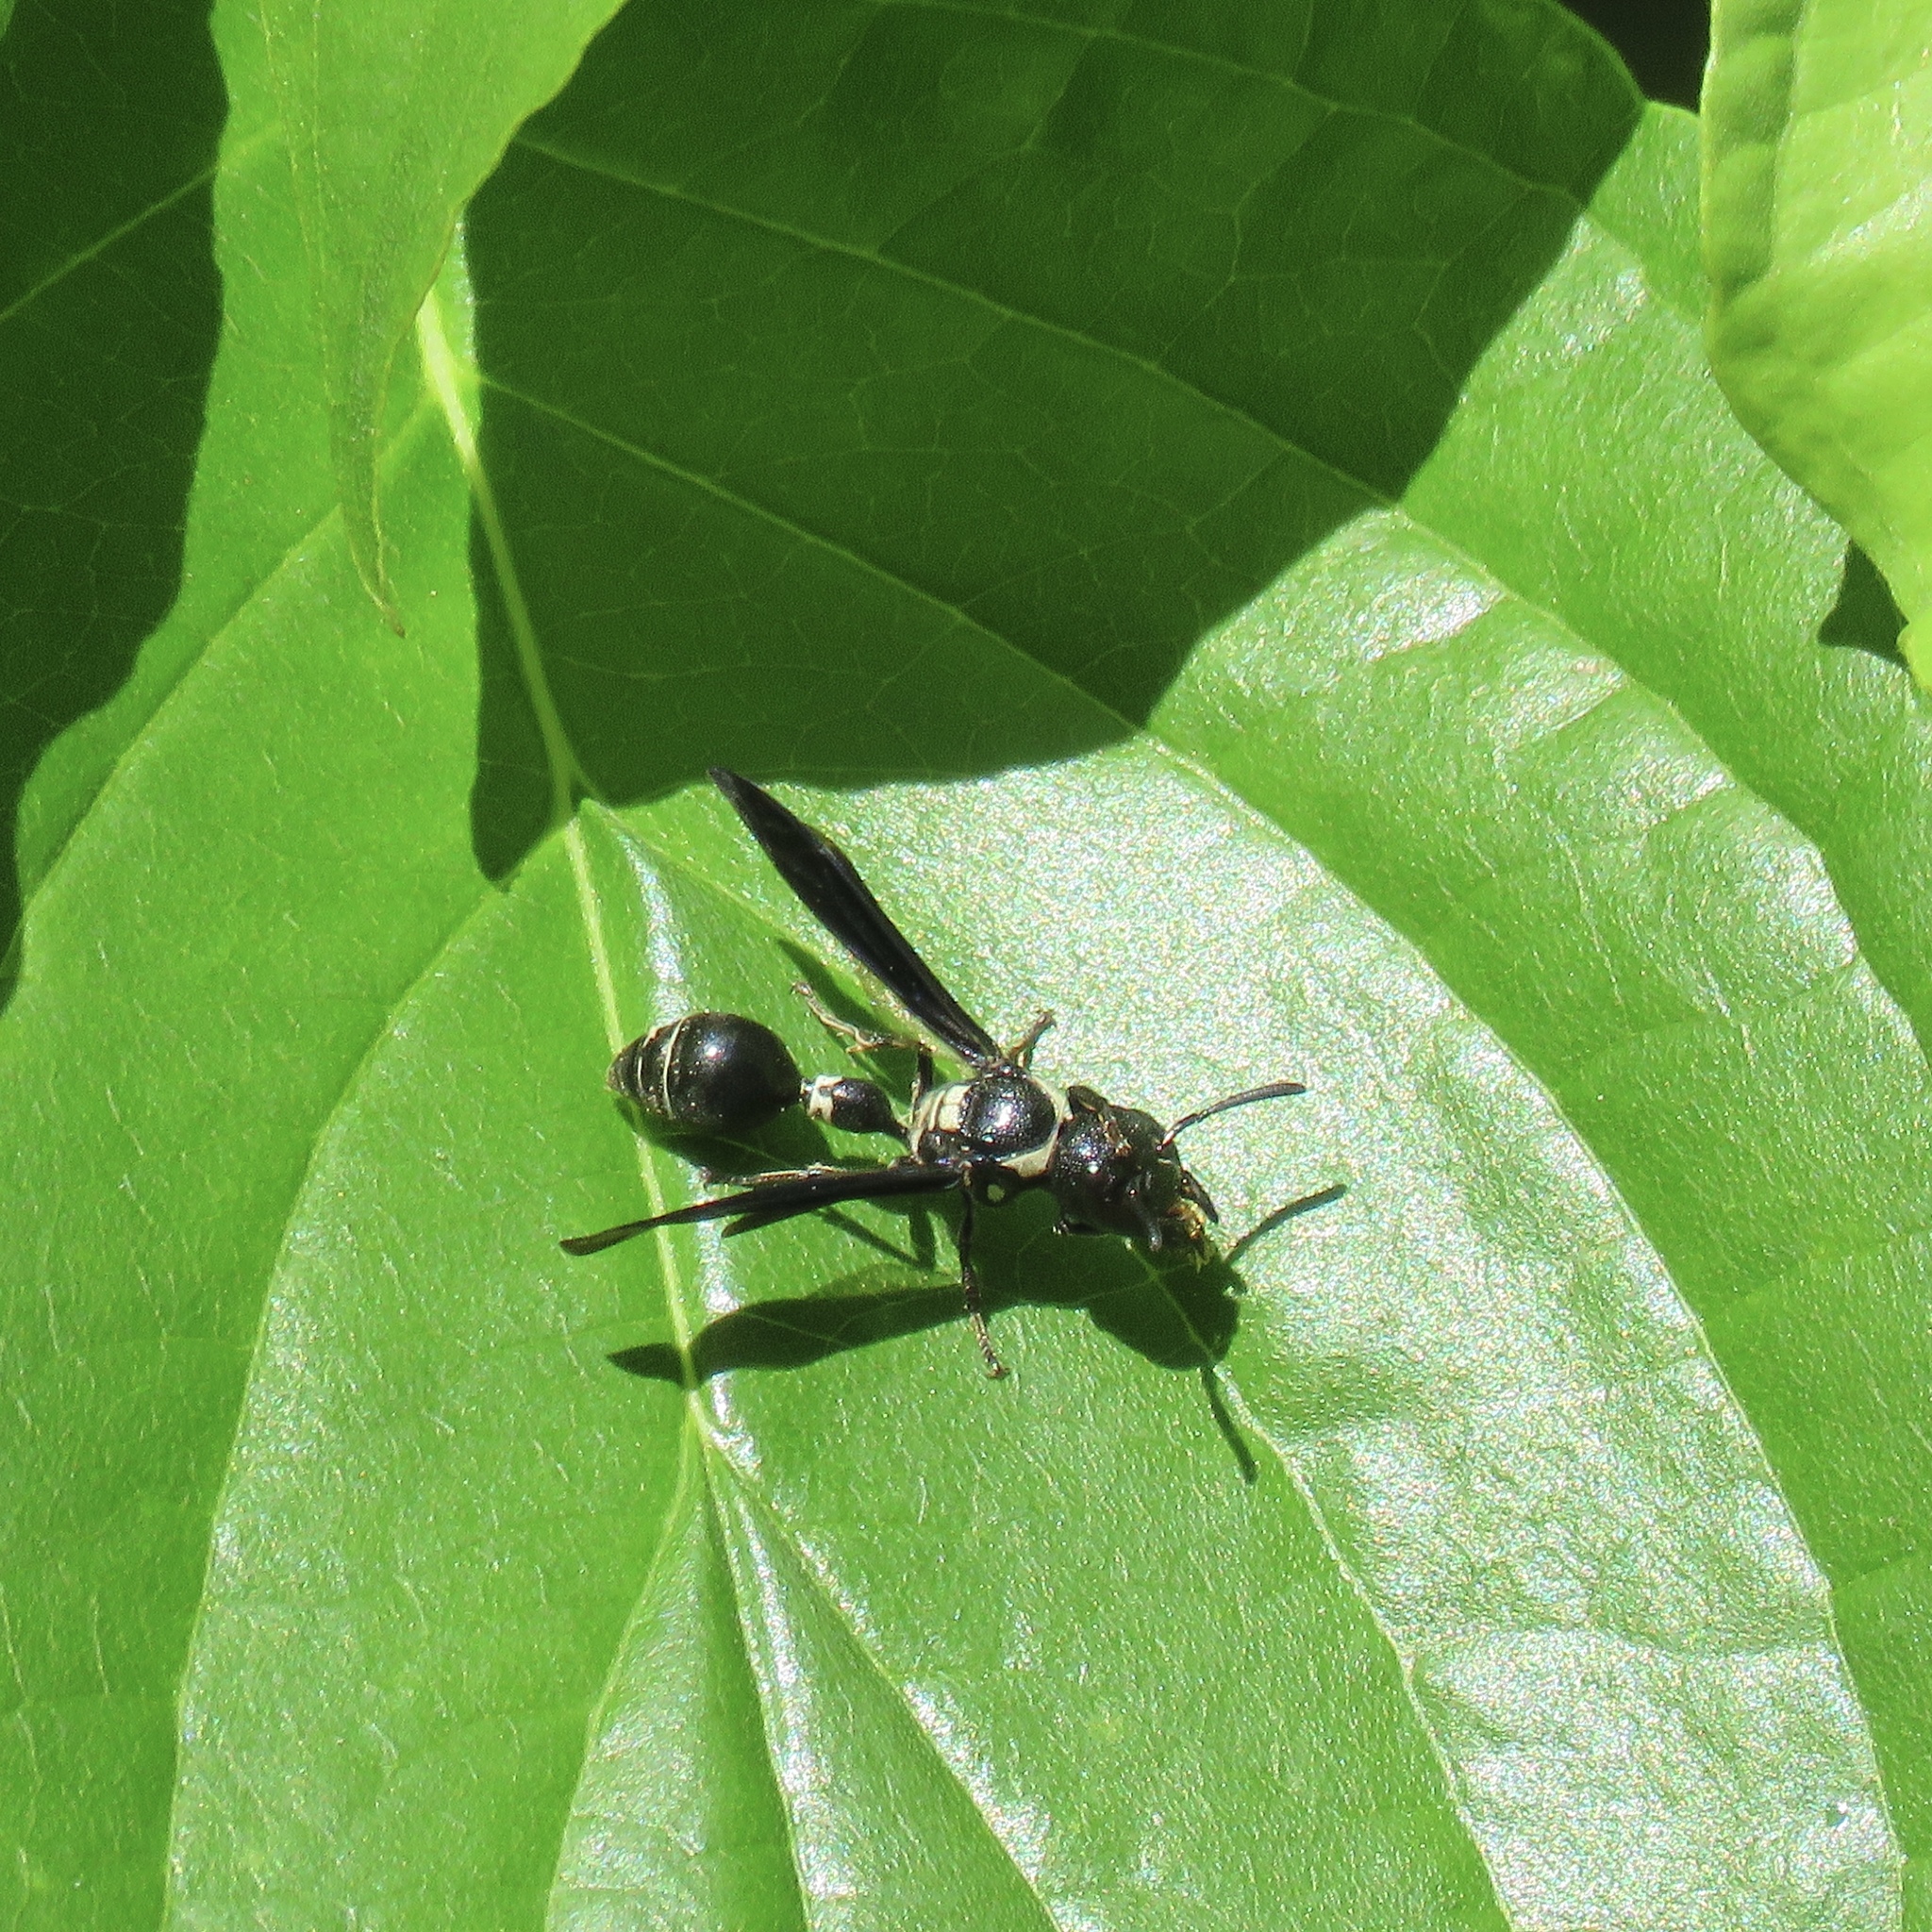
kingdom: Animalia
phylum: Arthropoda
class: Insecta
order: Hymenoptera
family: Eumenidae
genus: Zethus
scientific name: Zethus spinipes
